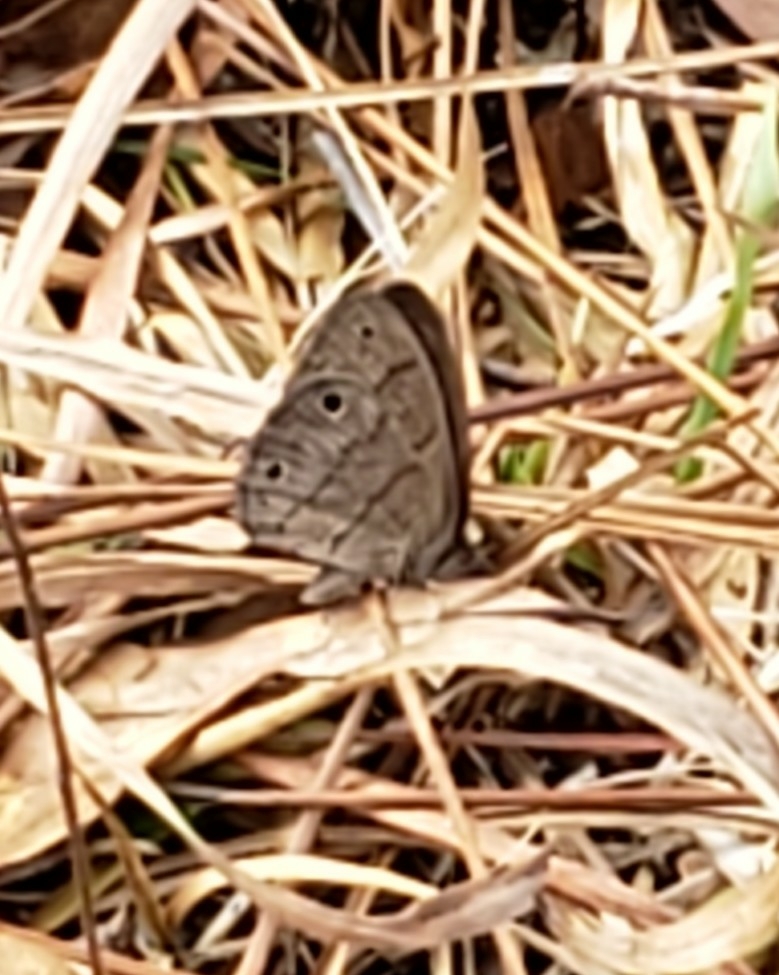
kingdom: Animalia
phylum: Arthropoda
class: Insecta
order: Lepidoptera
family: Nymphalidae
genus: Hermeuptychia
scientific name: Hermeuptychia hermes
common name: Hermes satyr
